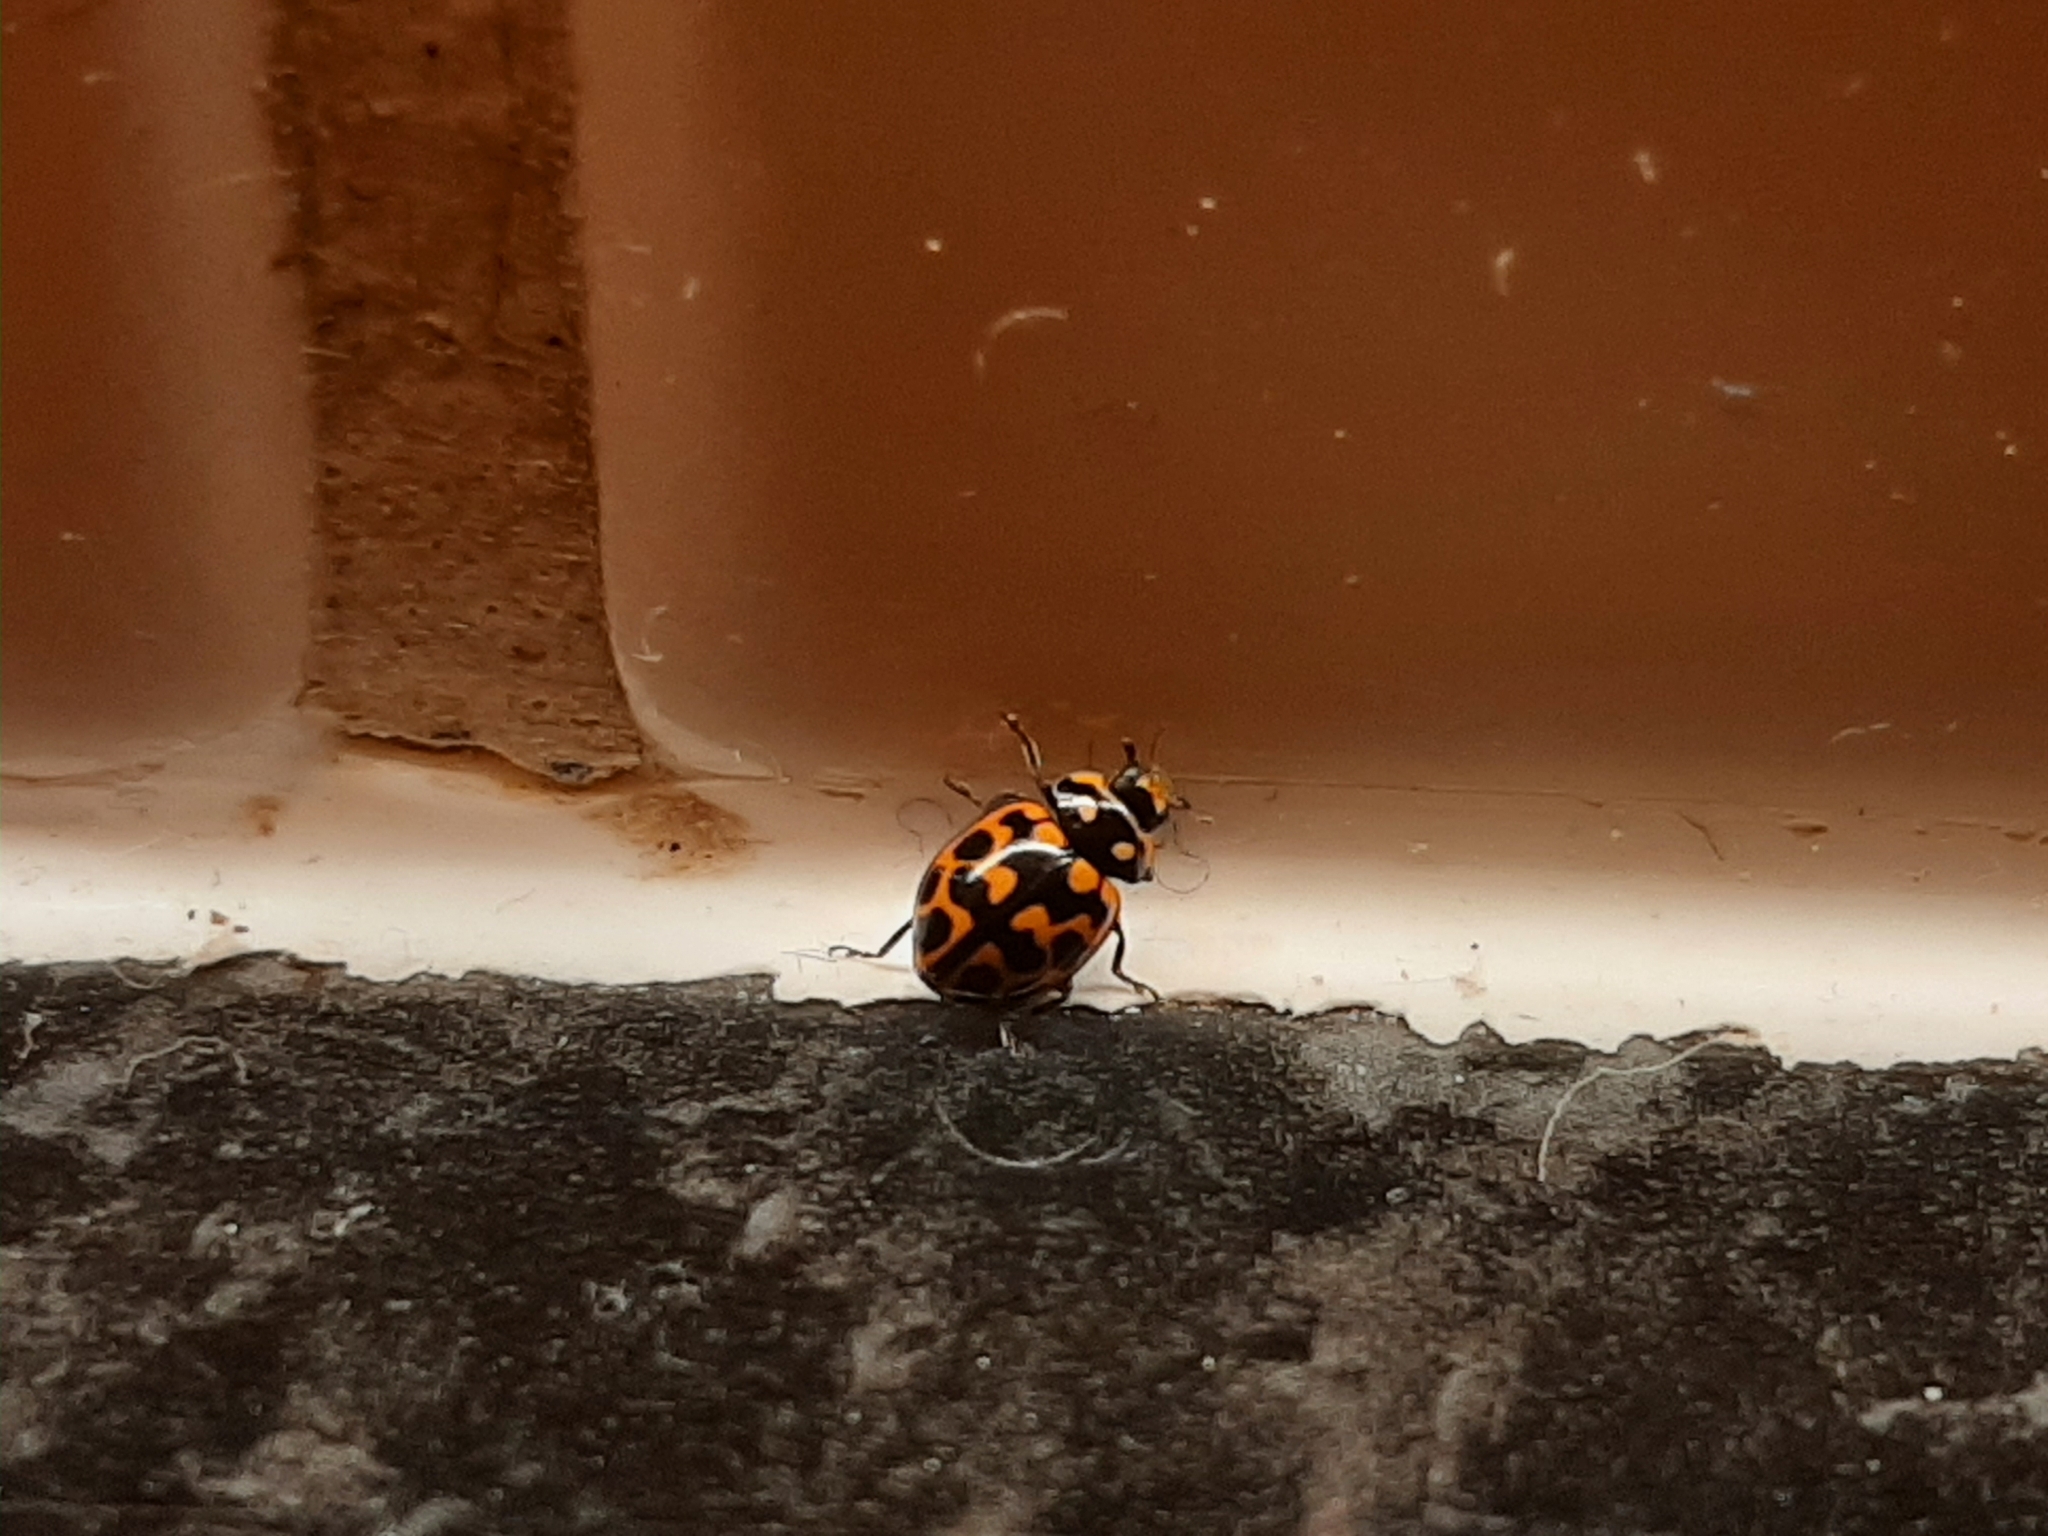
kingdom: Animalia
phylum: Arthropoda
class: Insecta
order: Coleoptera
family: Coccinellidae
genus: Lioadalia
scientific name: Lioadalia flavomaculata
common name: Ladybird beetle
